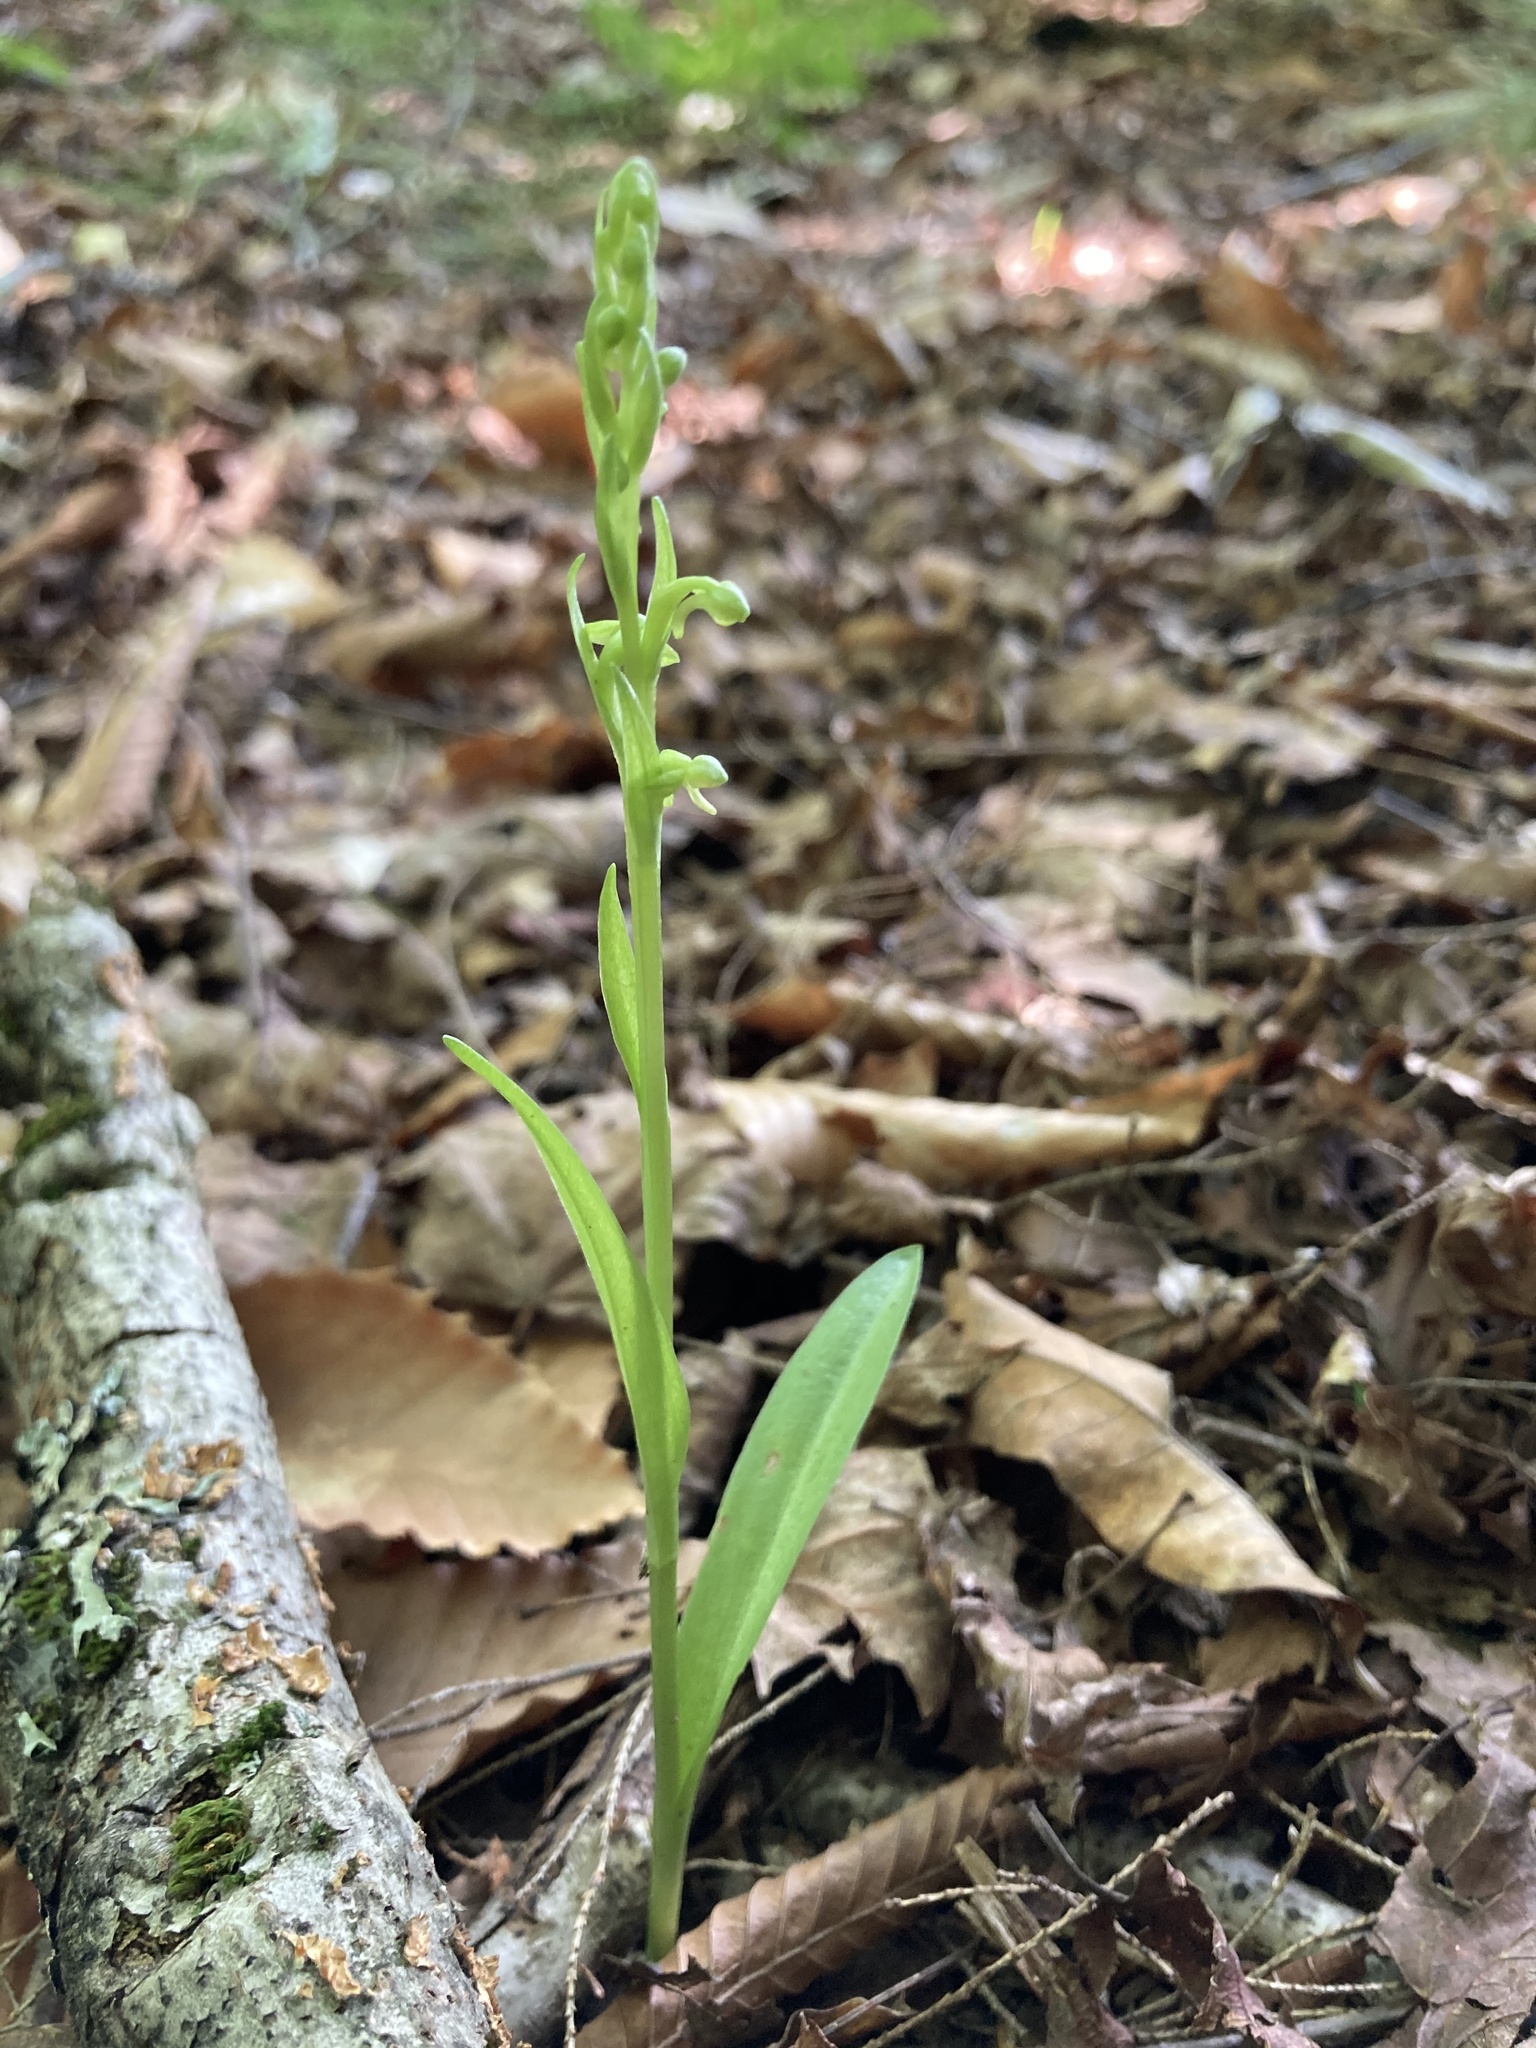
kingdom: Plantae
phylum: Tracheophyta
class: Liliopsida
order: Asparagales
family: Orchidaceae
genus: Platanthera
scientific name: Platanthera aquilonis
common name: Northern green orchid
